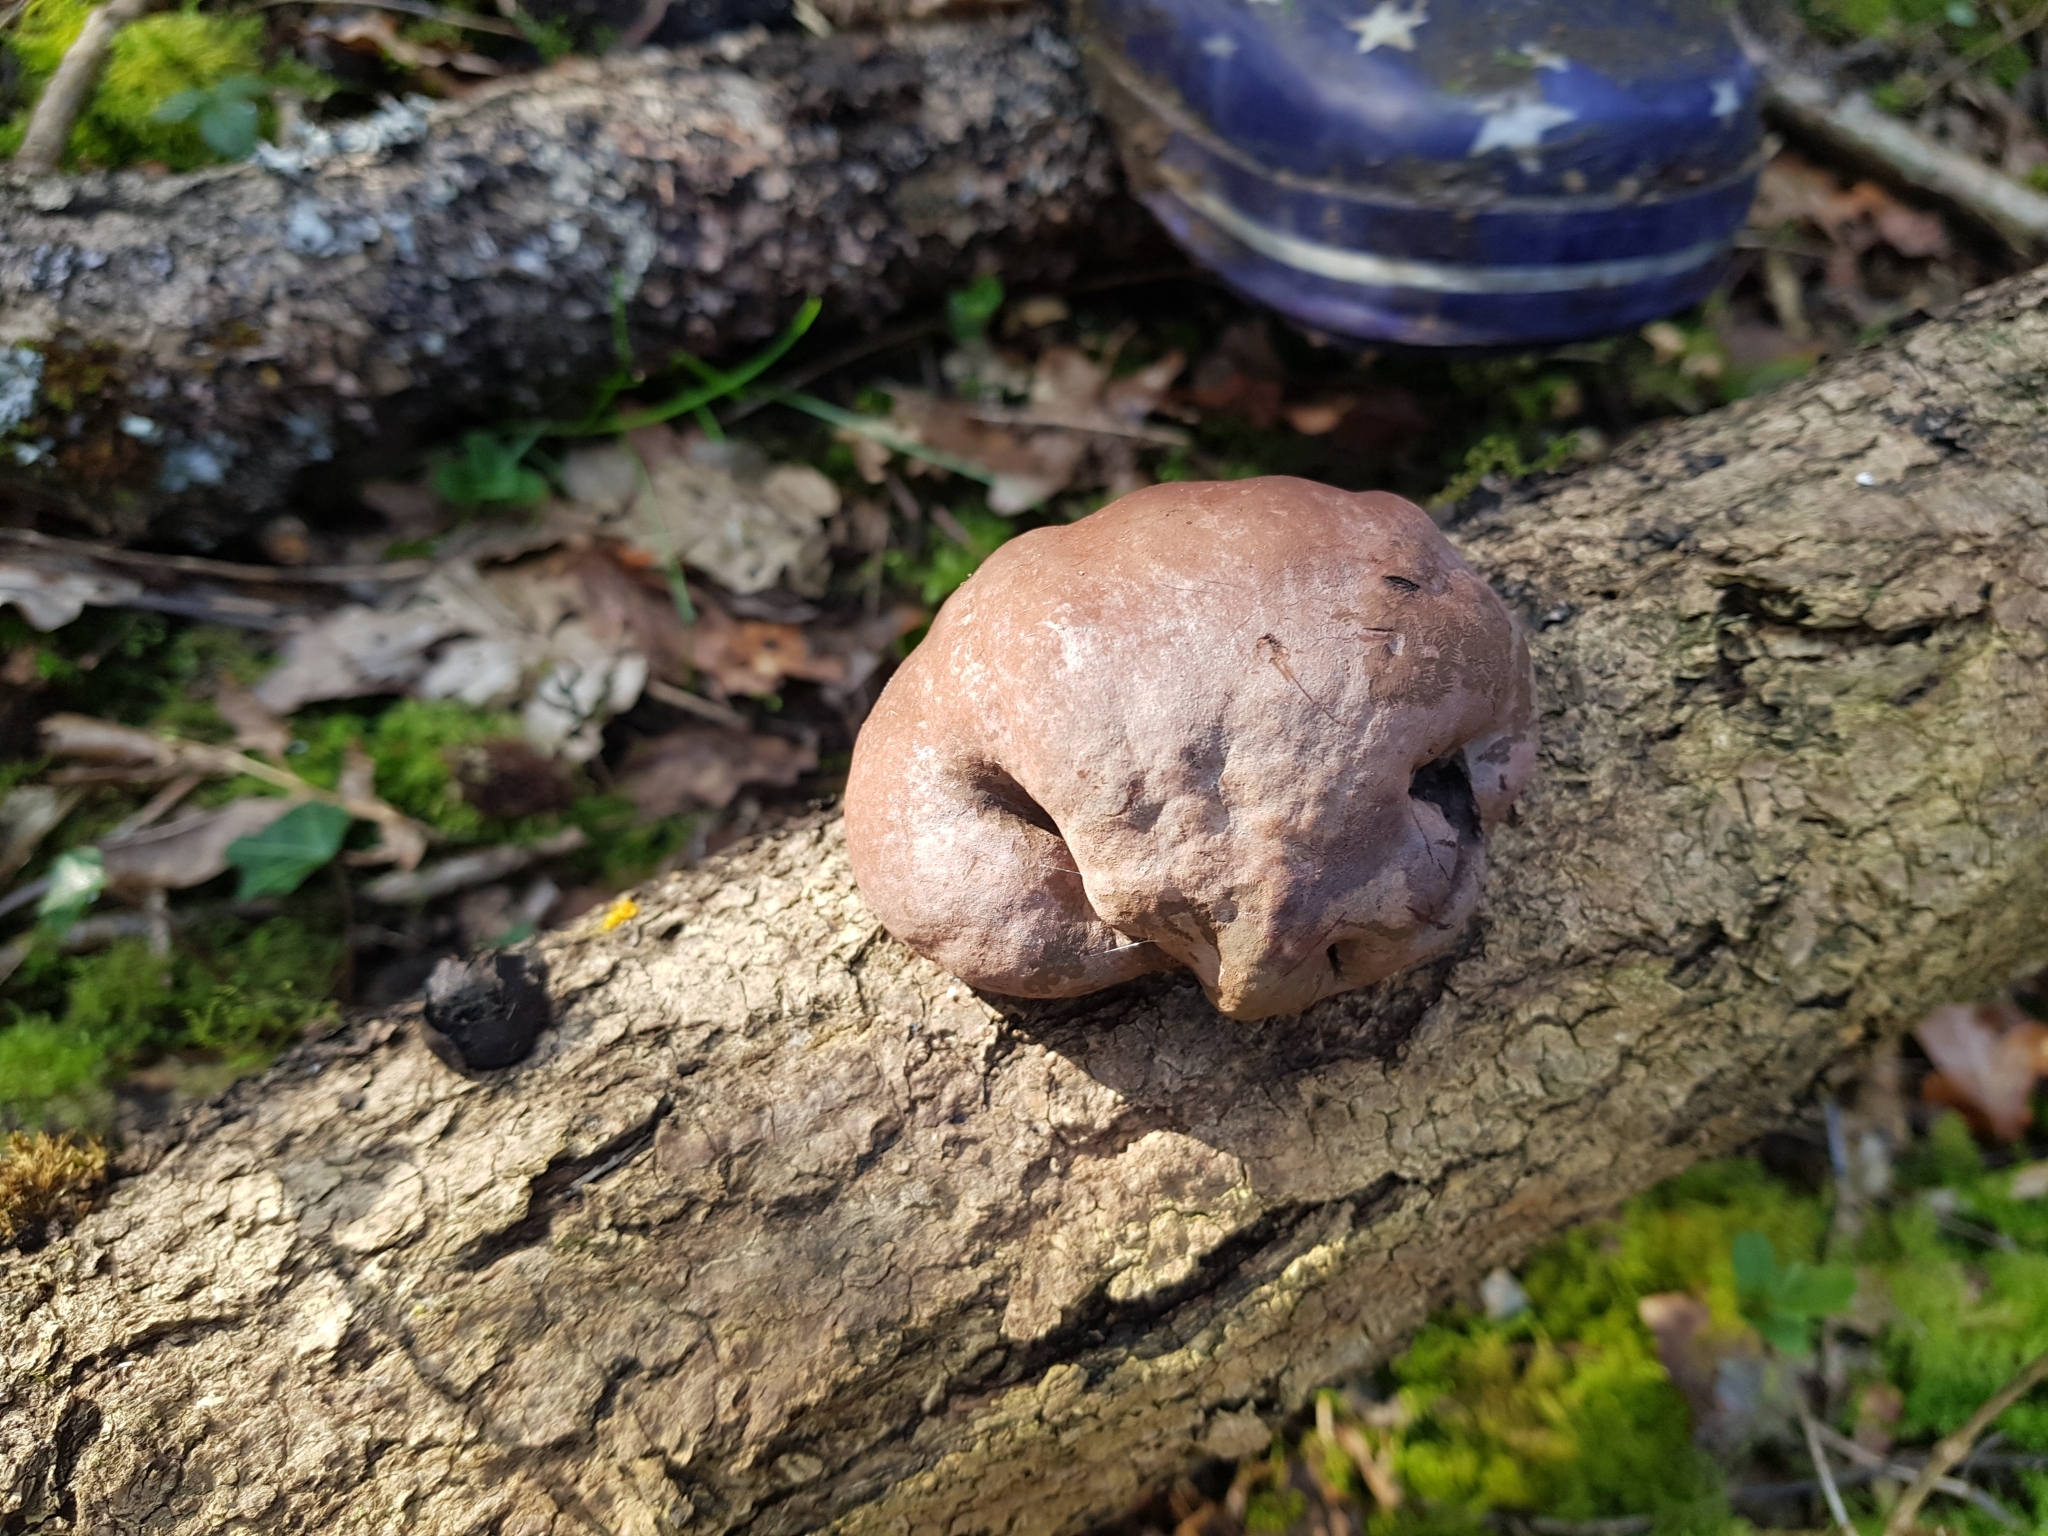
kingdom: Fungi
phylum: Ascomycota
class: Sordariomycetes
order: Xylariales
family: Hypoxylaceae
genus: Daldinia
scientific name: Daldinia concentrica
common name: Cramp balls
